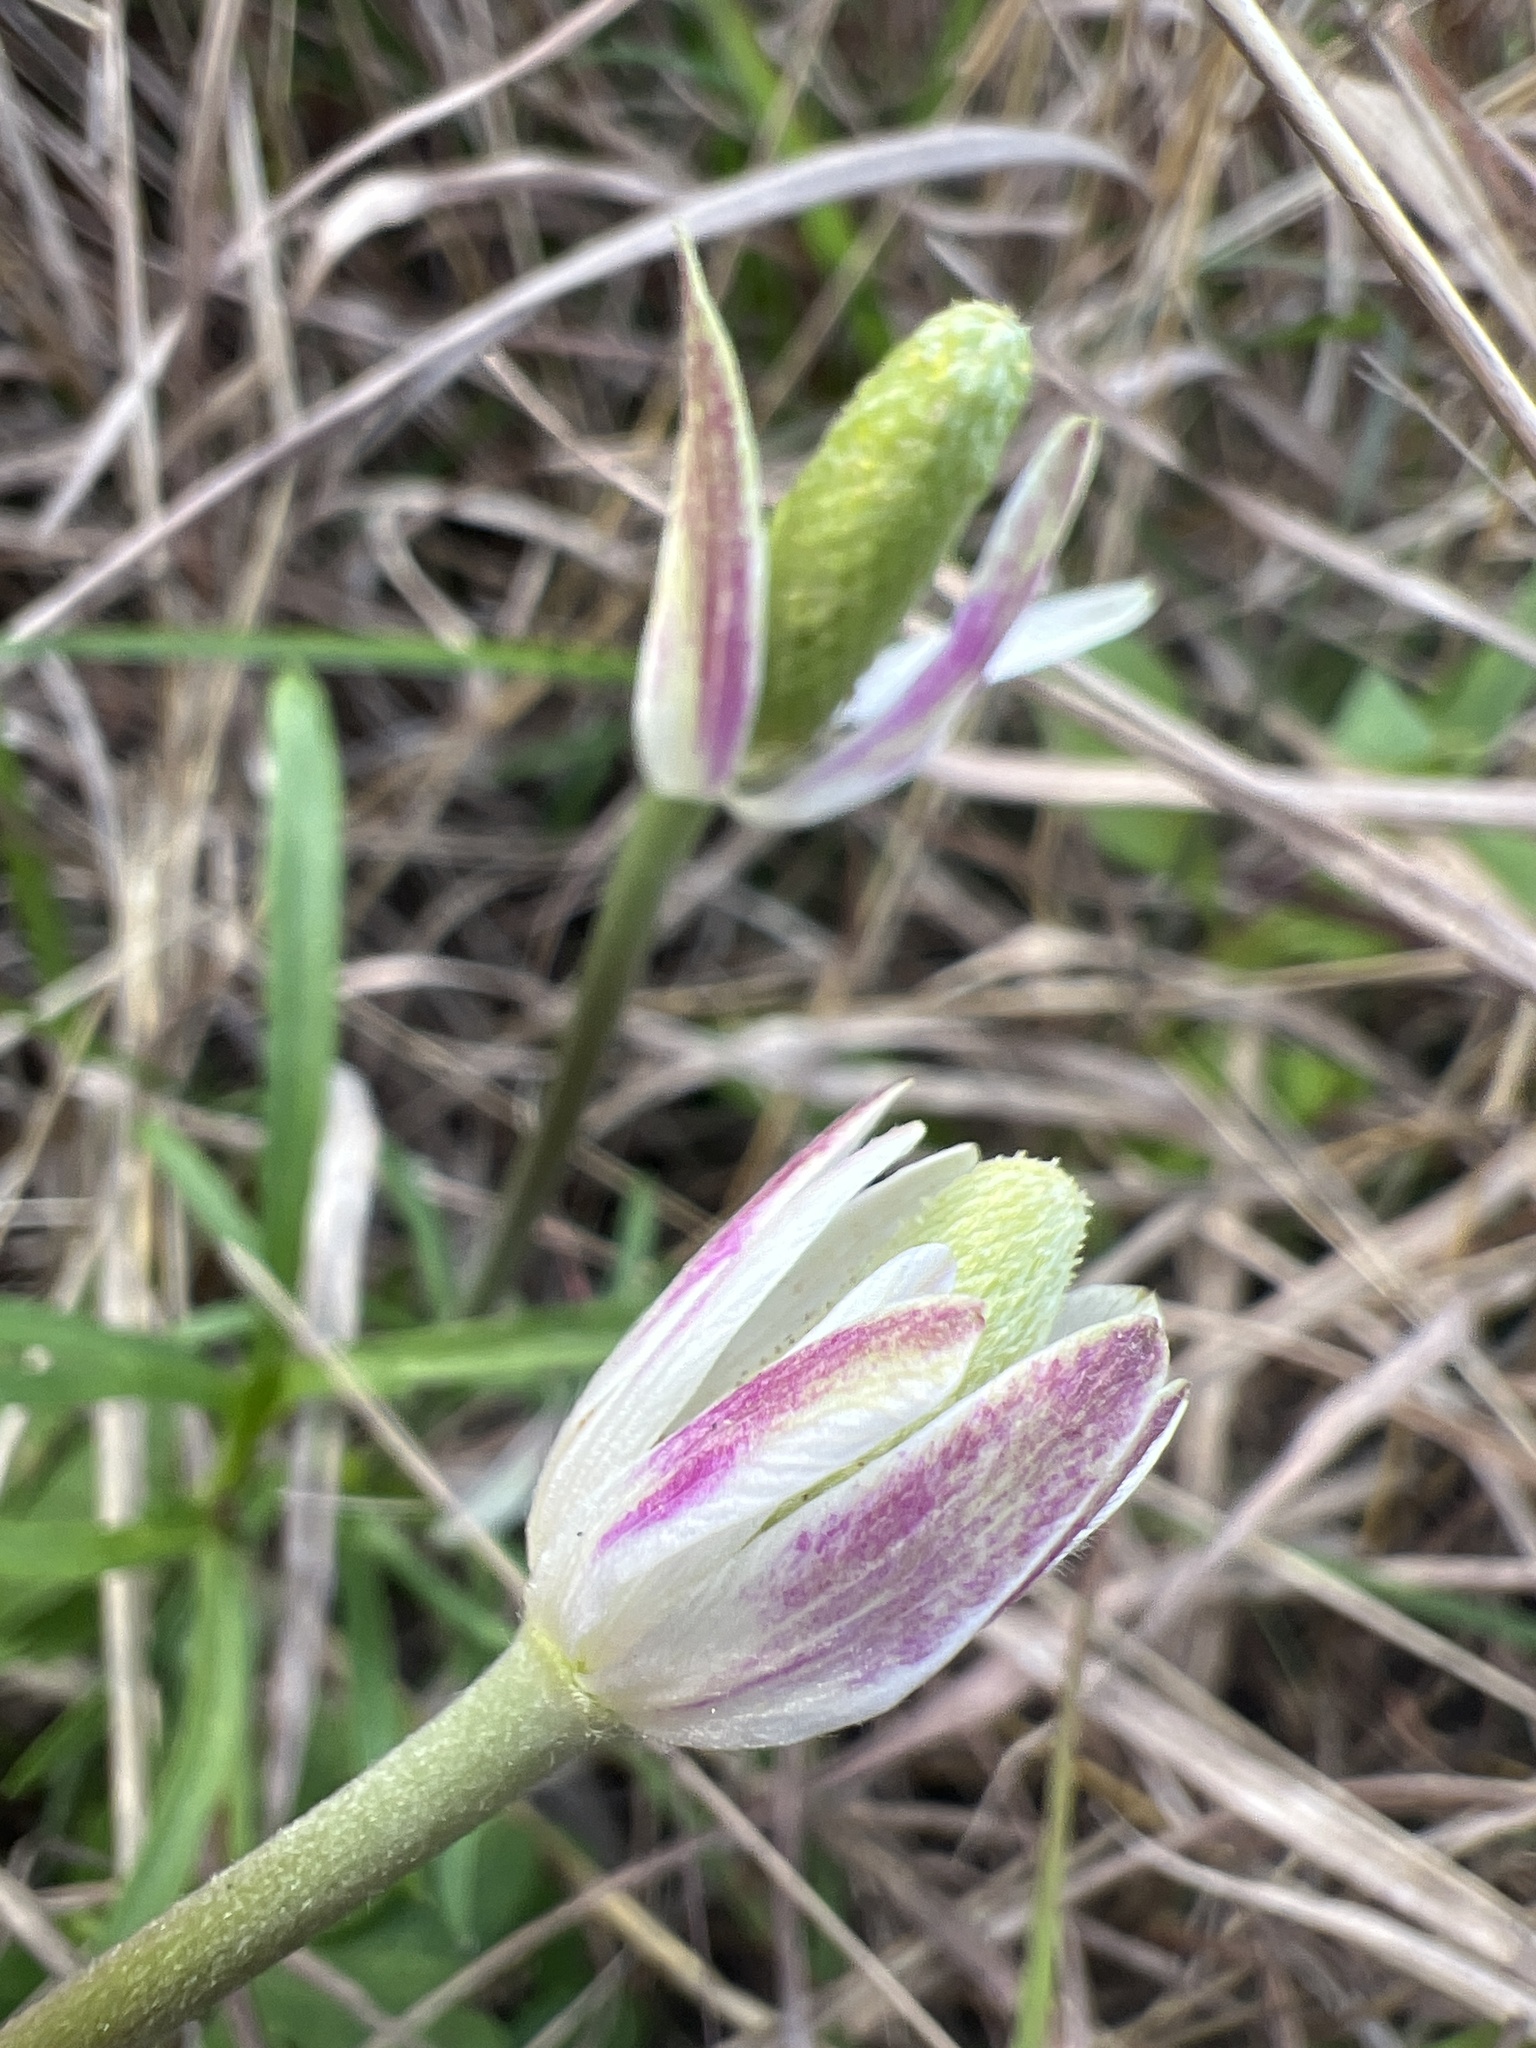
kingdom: Plantae
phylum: Tracheophyta
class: Magnoliopsida
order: Ranunculales
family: Ranunculaceae
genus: Anemone
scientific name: Anemone berlandieri
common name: Ten-petal anemone
